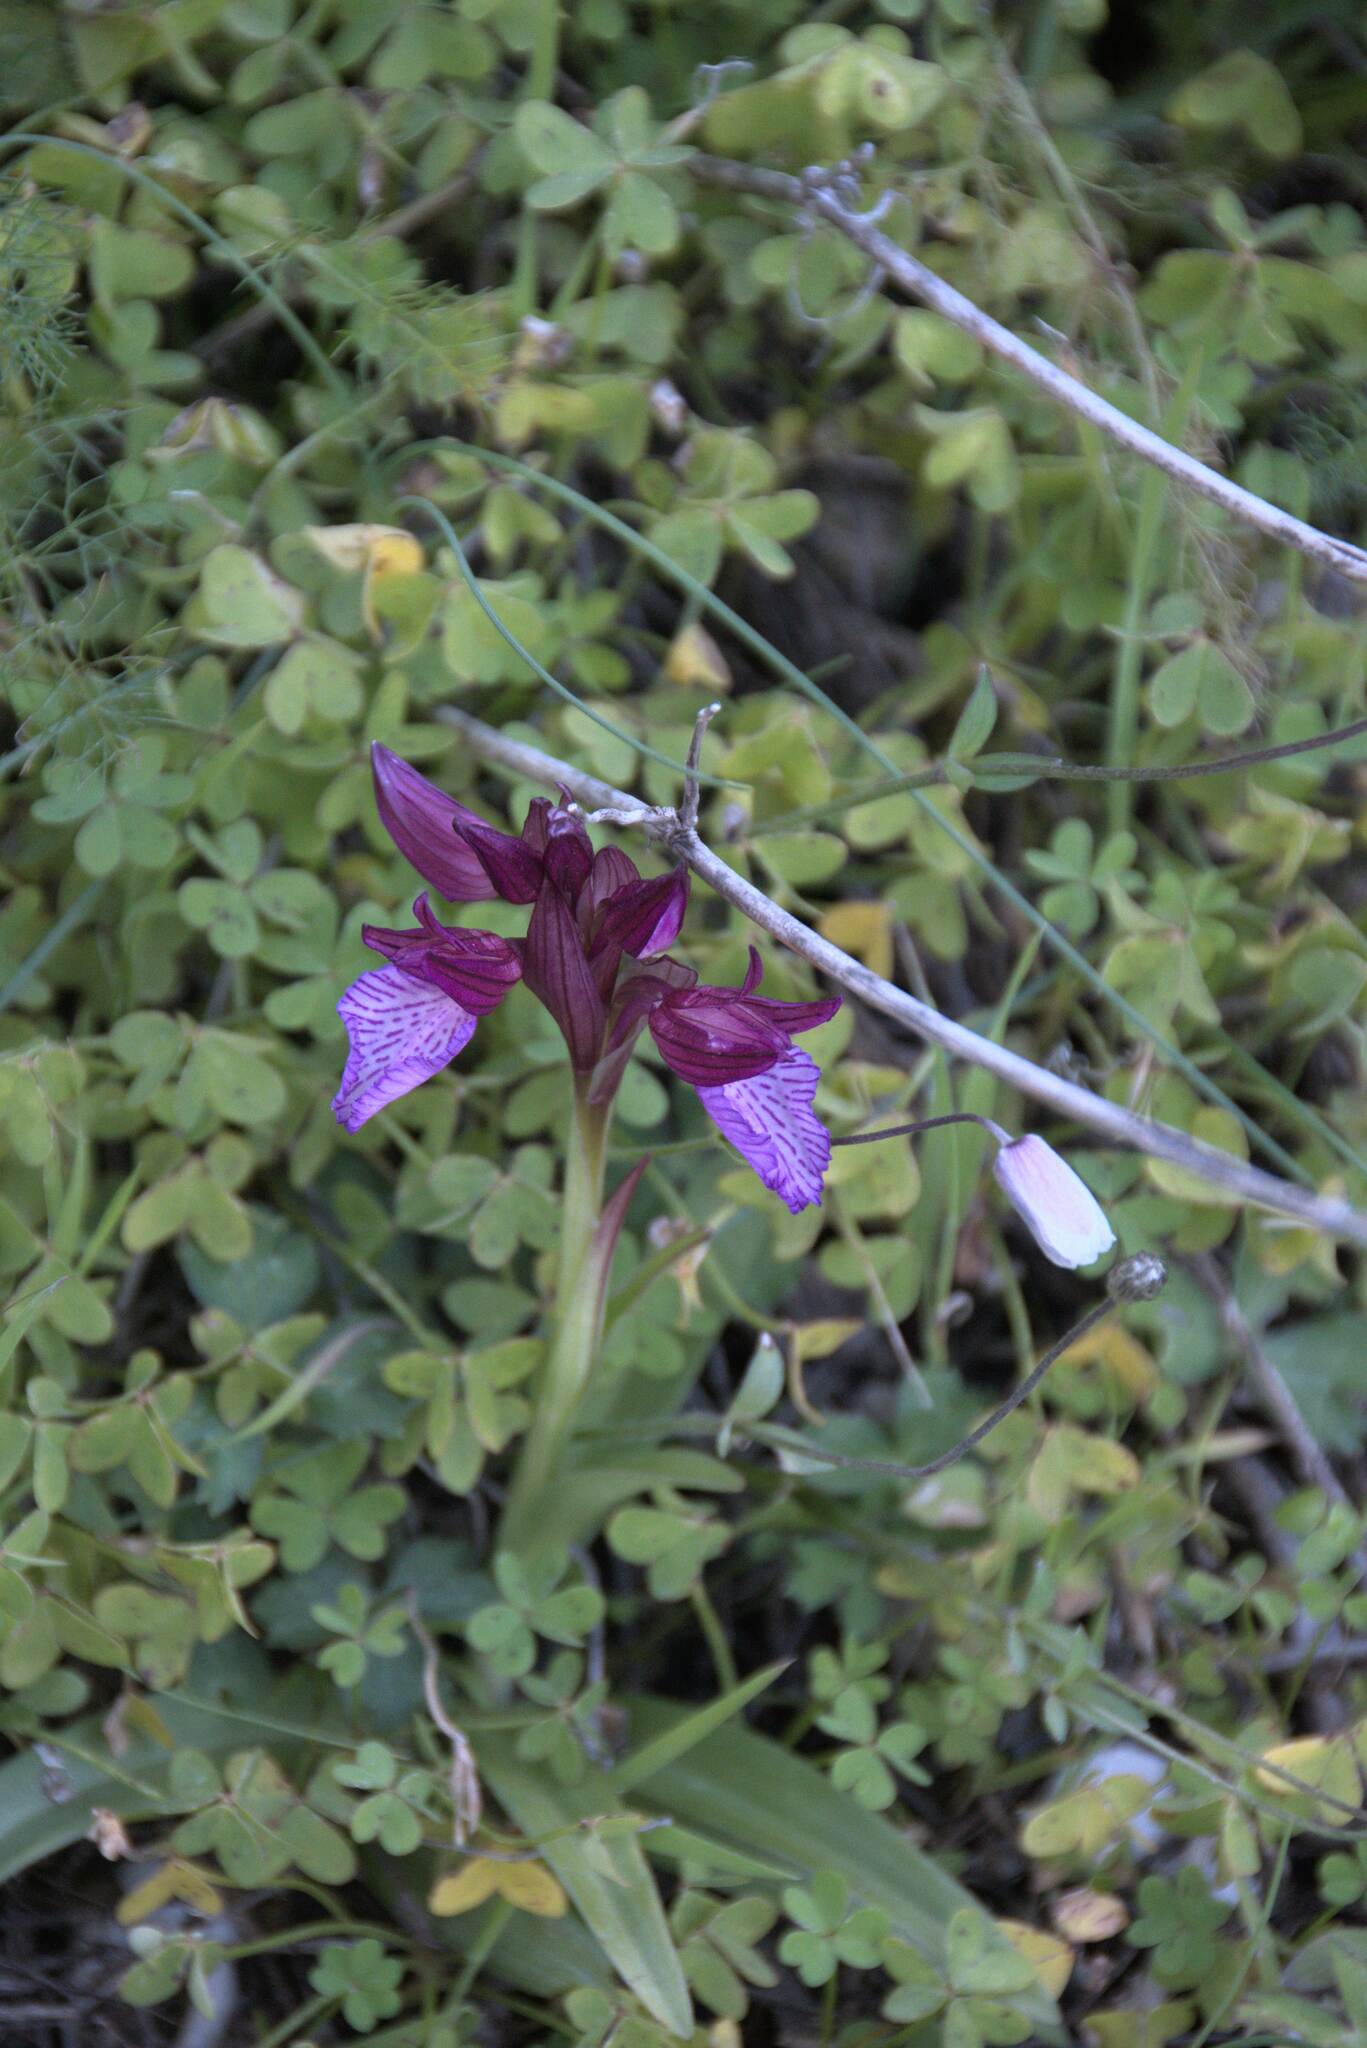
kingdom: Plantae
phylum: Tracheophyta
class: Liliopsida
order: Asparagales
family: Orchidaceae
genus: Anacamptis
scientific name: Anacamptis papilionacea
